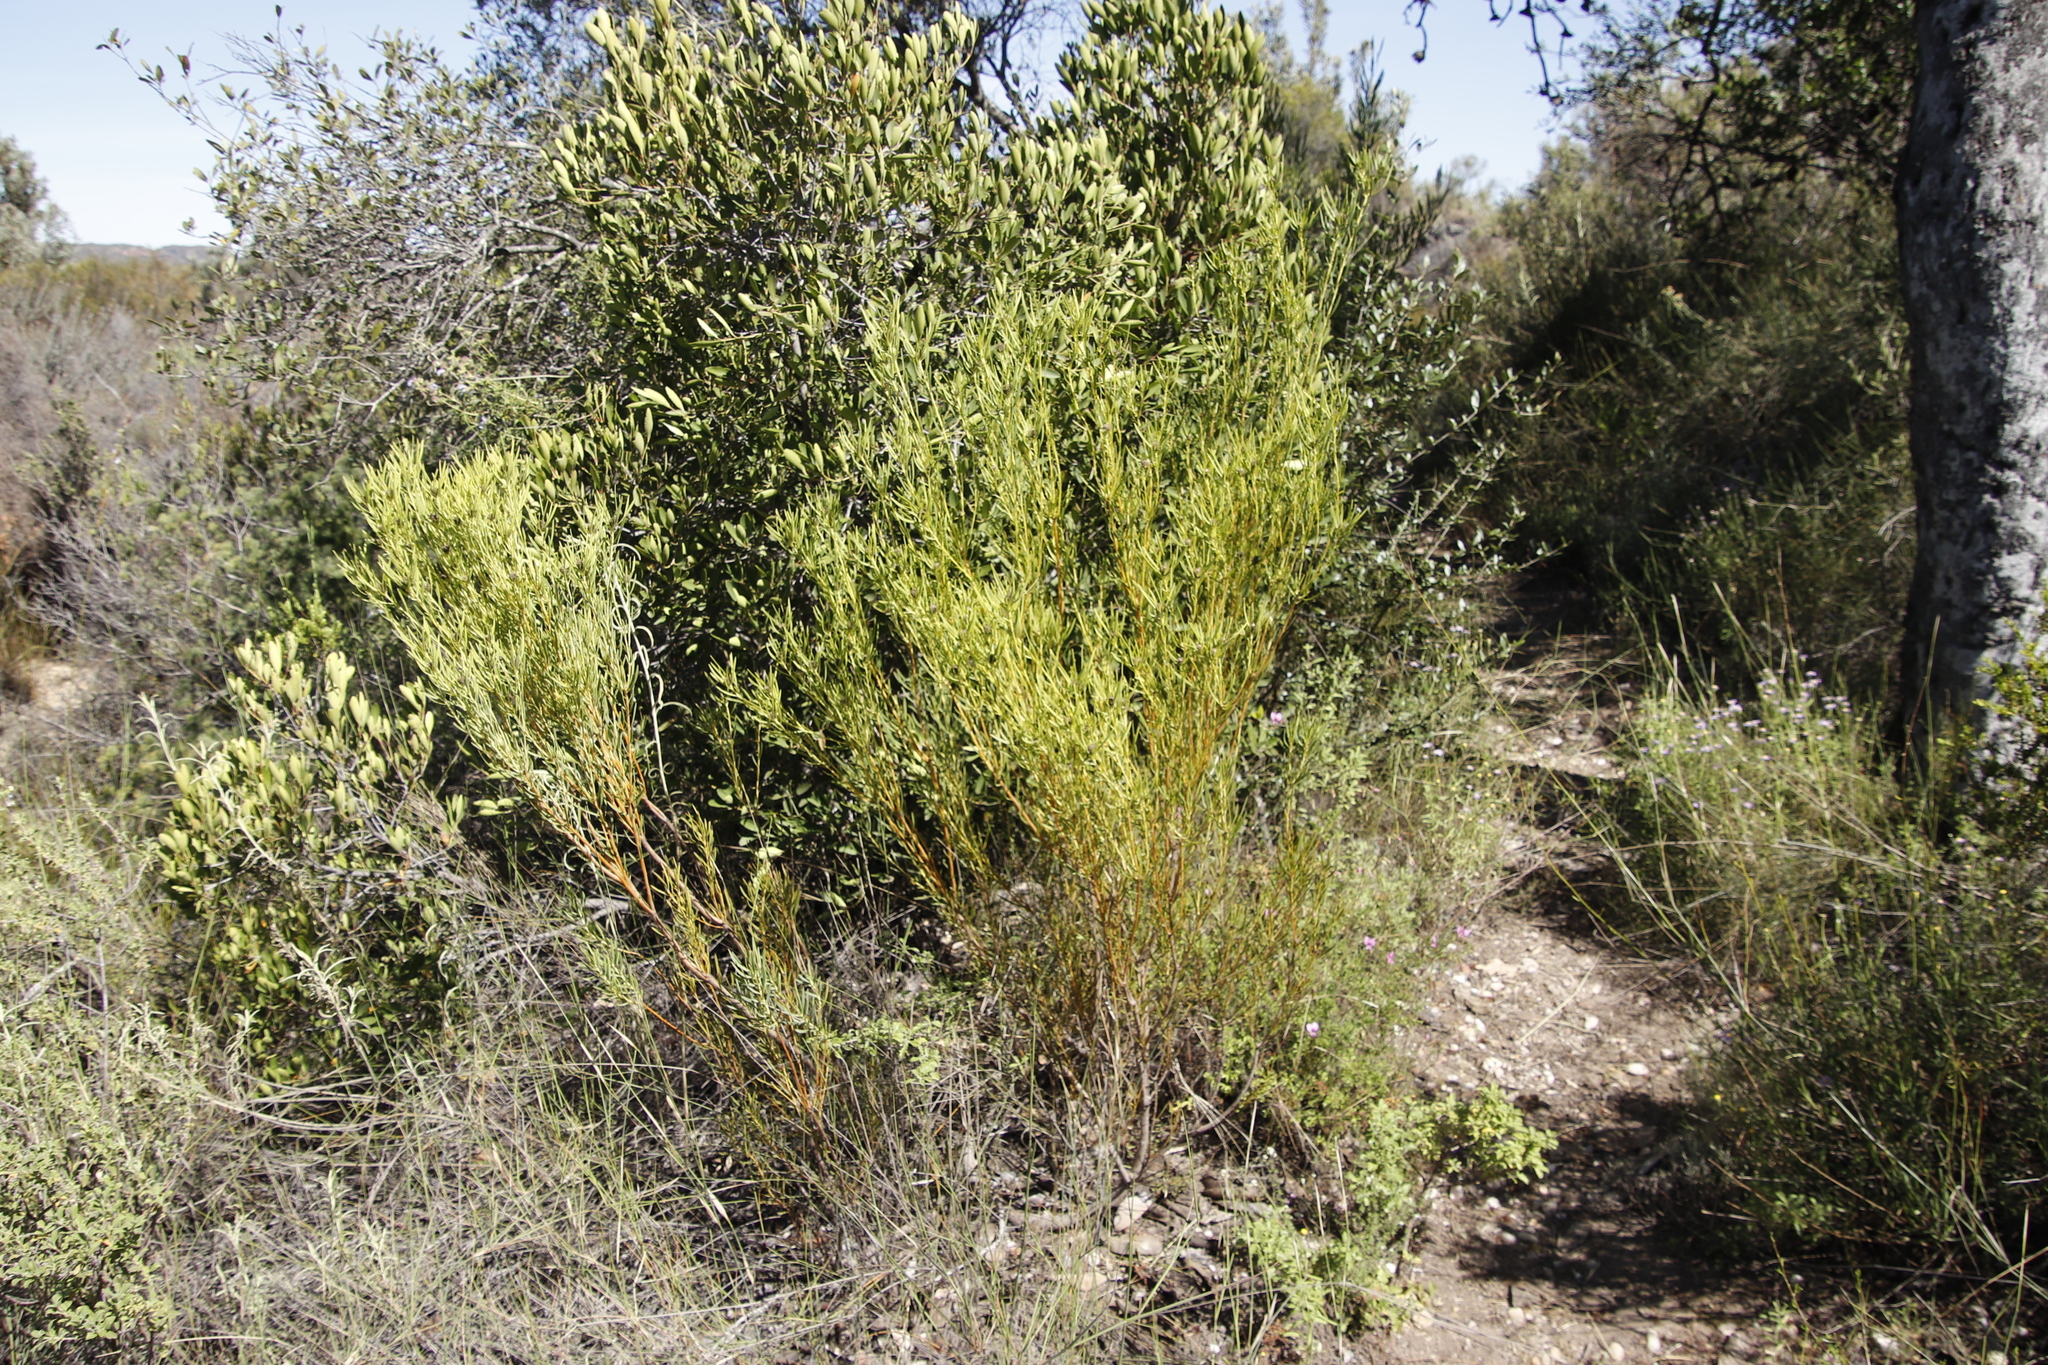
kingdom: Plantae
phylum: Tracheophyta
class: Magnoliopsida
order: Proteales
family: Proteaceae
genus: Leucadendron
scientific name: Leucadendron salignum
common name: Common sunshine conebush
